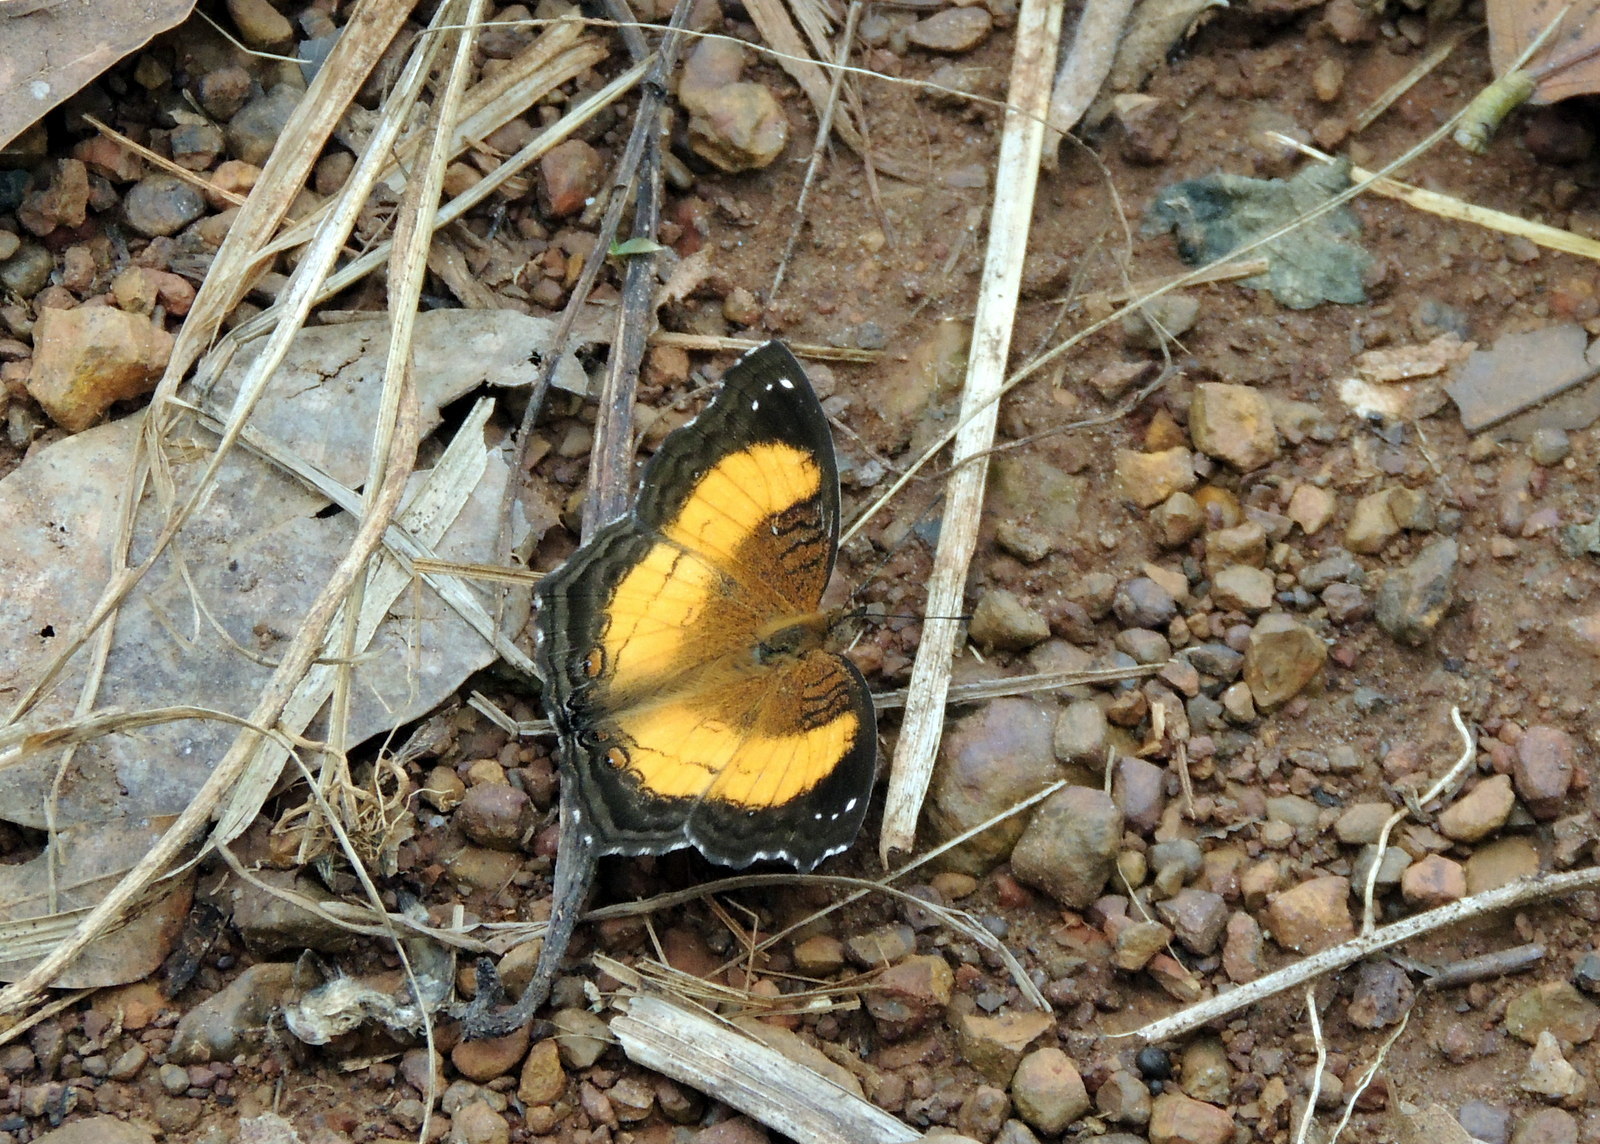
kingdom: Animalia
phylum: Arthropoda
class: Insecta
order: Lepidoptera
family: Nymphalidae
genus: Junonia
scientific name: Junonia terea
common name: Soldier pansy
